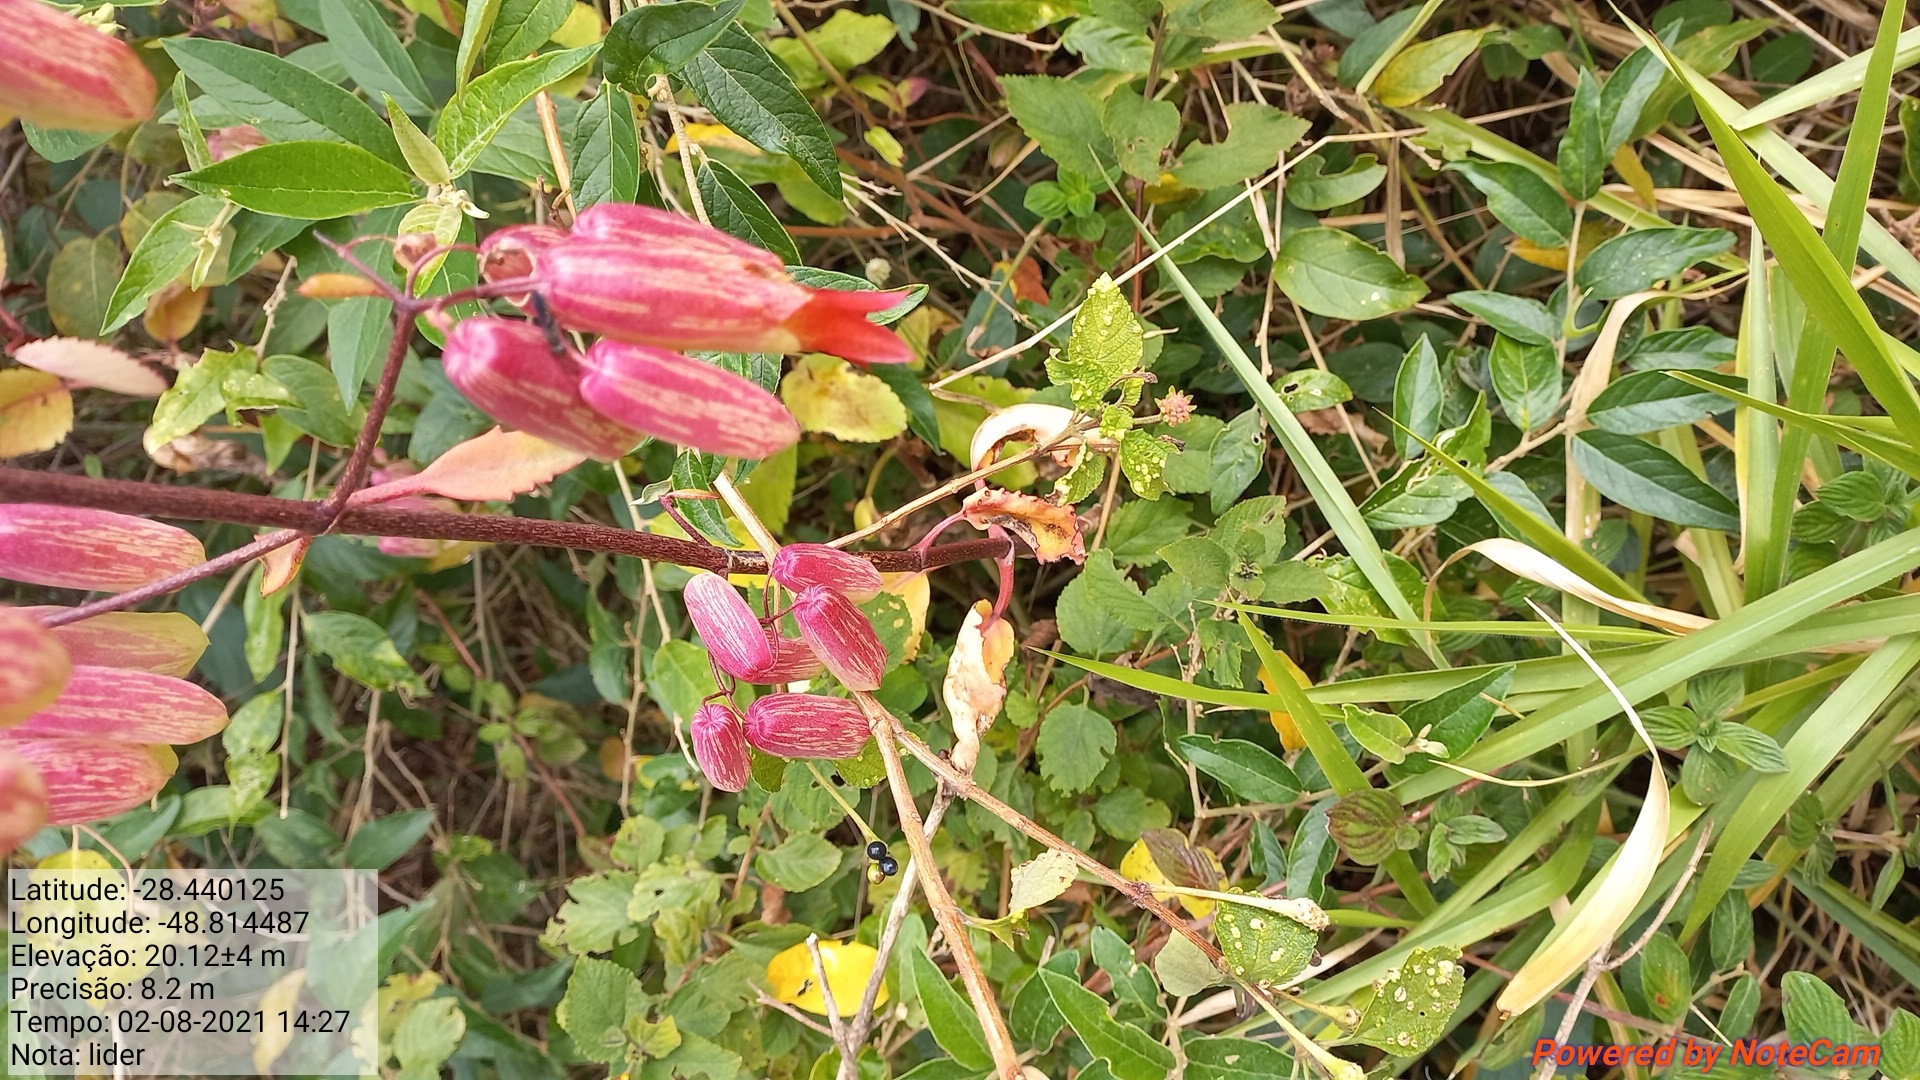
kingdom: Plantae
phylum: Tracheophyta
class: Magnoliopsida
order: Saxifragales
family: Crassulaceae
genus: Kalanchoe
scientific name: Kalanchoe pinnata
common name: Cathedral bells
